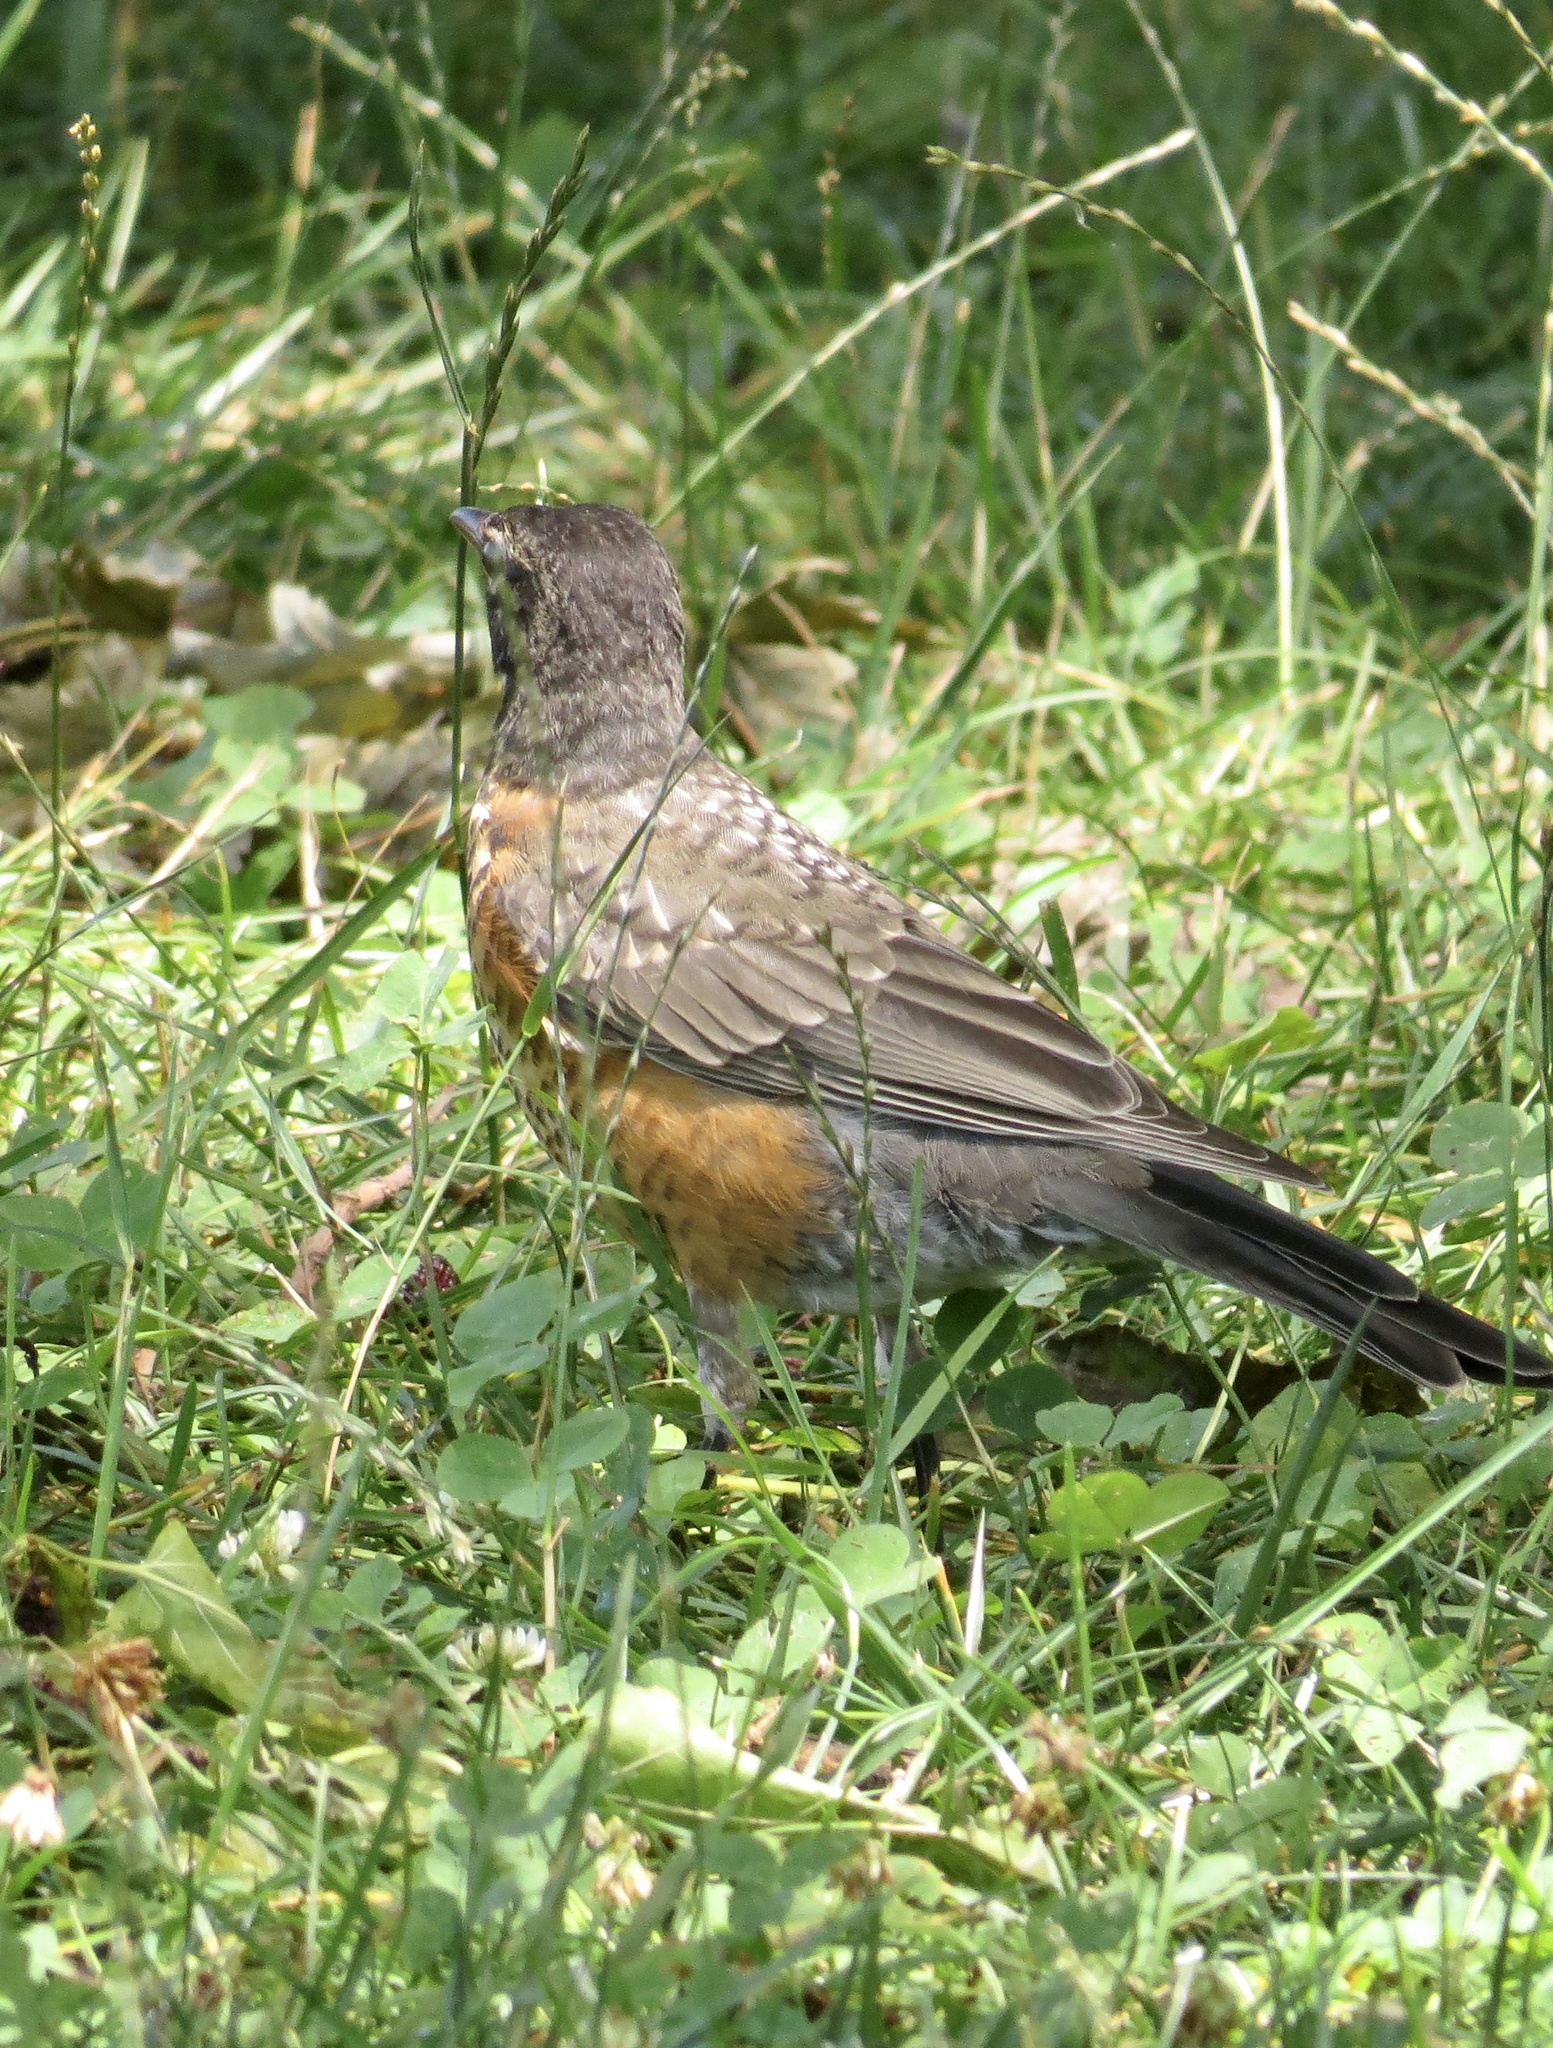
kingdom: Animalia
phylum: Chordata
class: Aves
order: Passeriformes
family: Turdidae
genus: Turdus
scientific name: Turdus migratorius
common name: American robin
